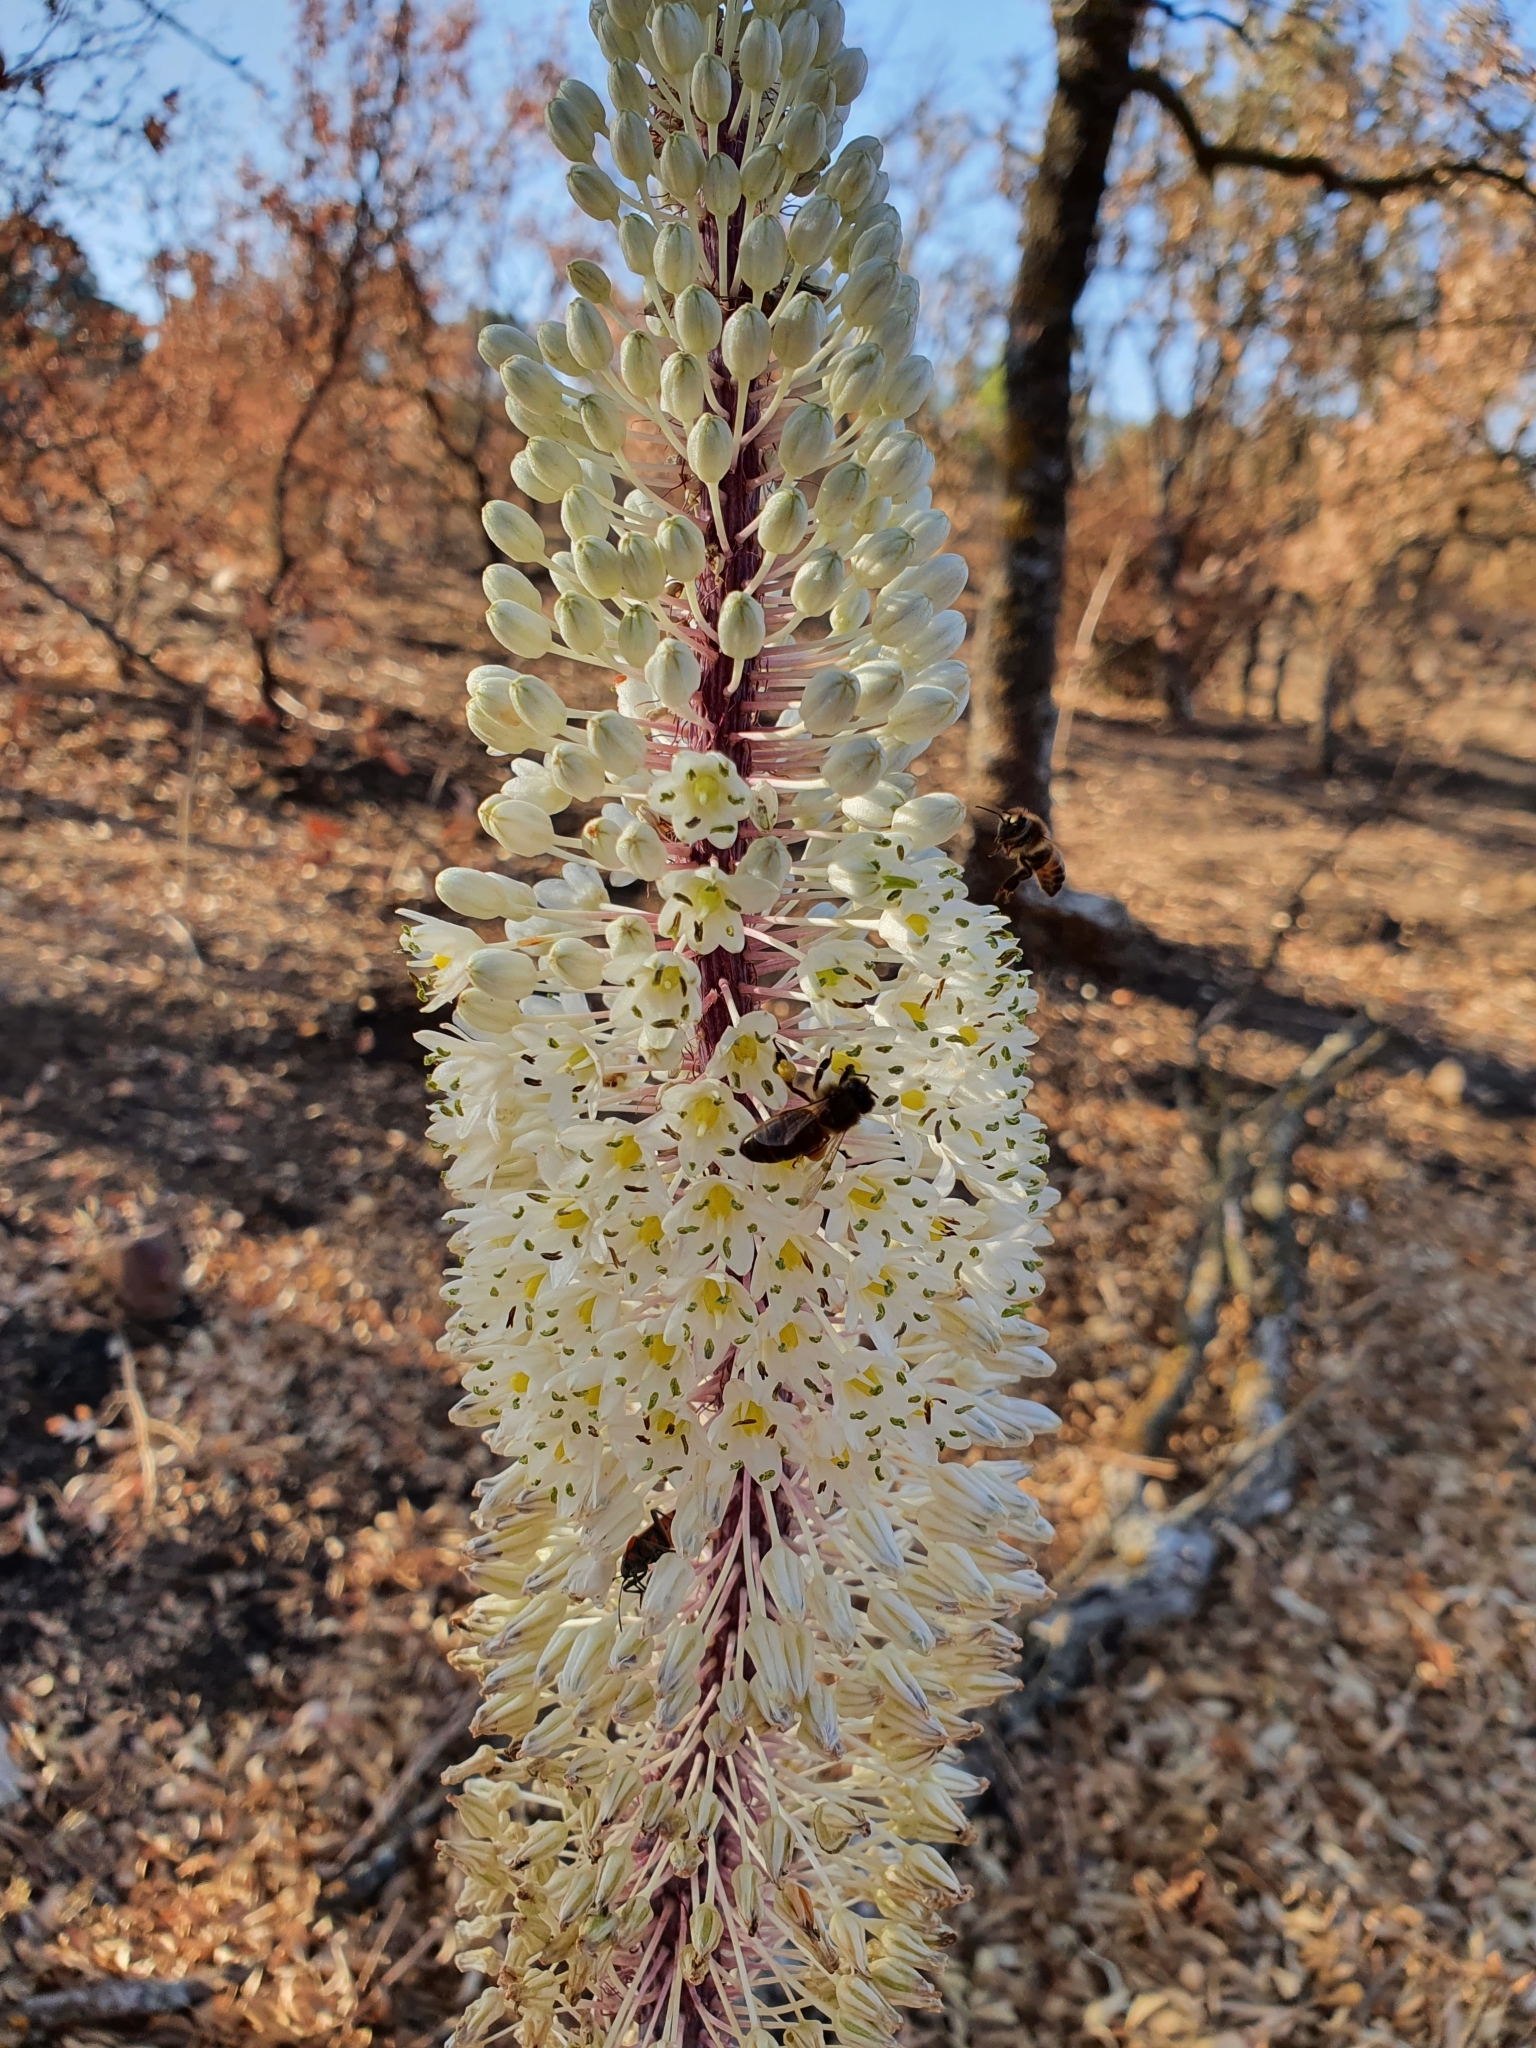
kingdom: Plantae
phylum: Tracheophyta
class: Liliopsida
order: Asparagales
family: Asparagaceae
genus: Drimia
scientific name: Drimia numidica
